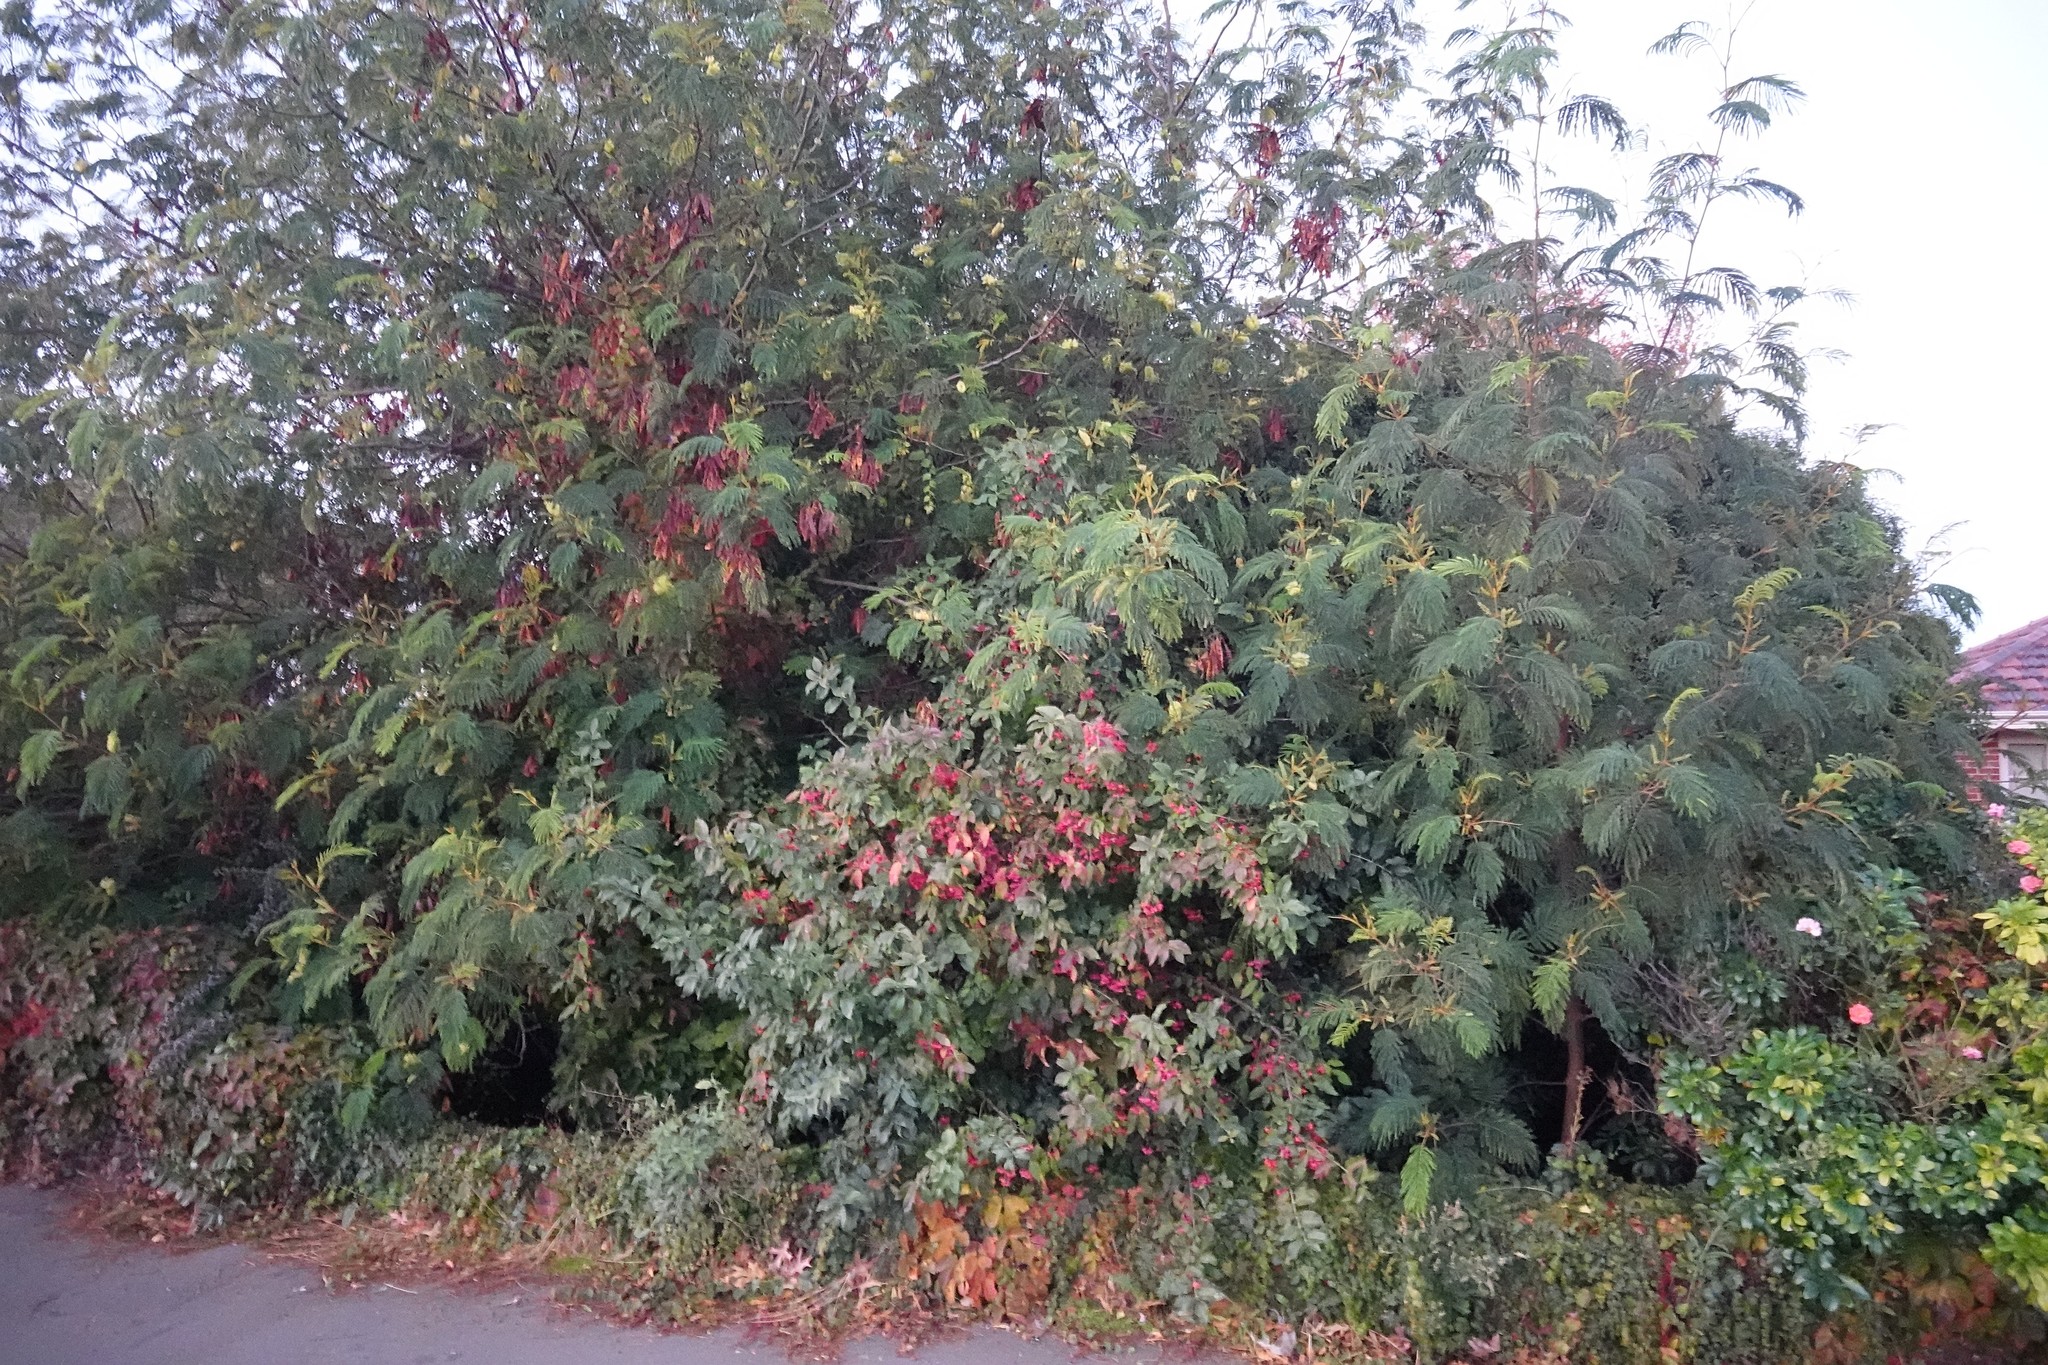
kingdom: Plantae
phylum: Tracheophyta
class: Magnoliopsida
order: Celastrales
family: Celastraceae
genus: Euonymus
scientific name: Euonymus europaeus
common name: Spindle
